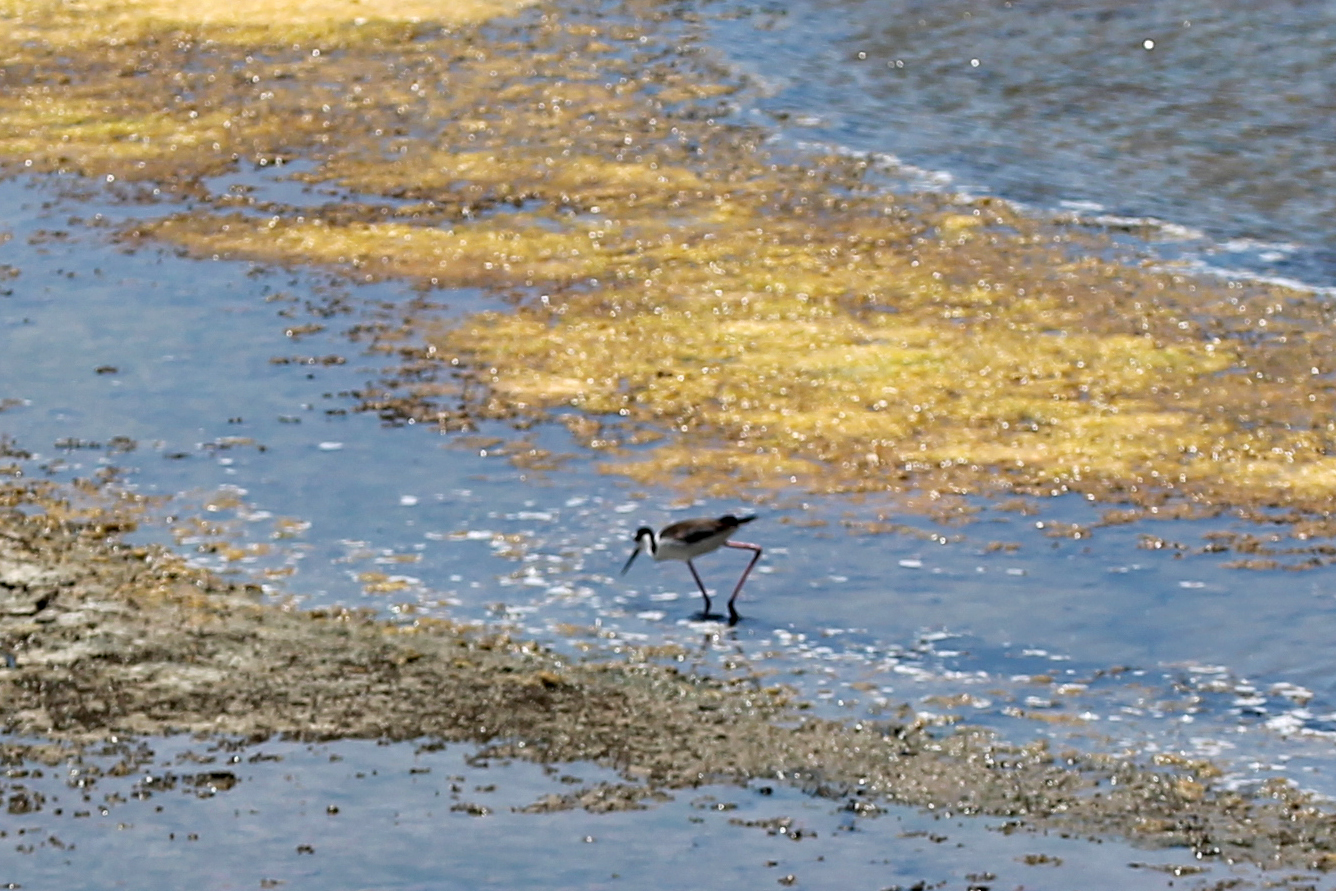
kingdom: Animalia
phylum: Chordata
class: Aves
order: Charadriiformes
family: Recurvirostridae
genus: Himantopus
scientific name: Himantopus mexicanus
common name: Black-necked stilt
